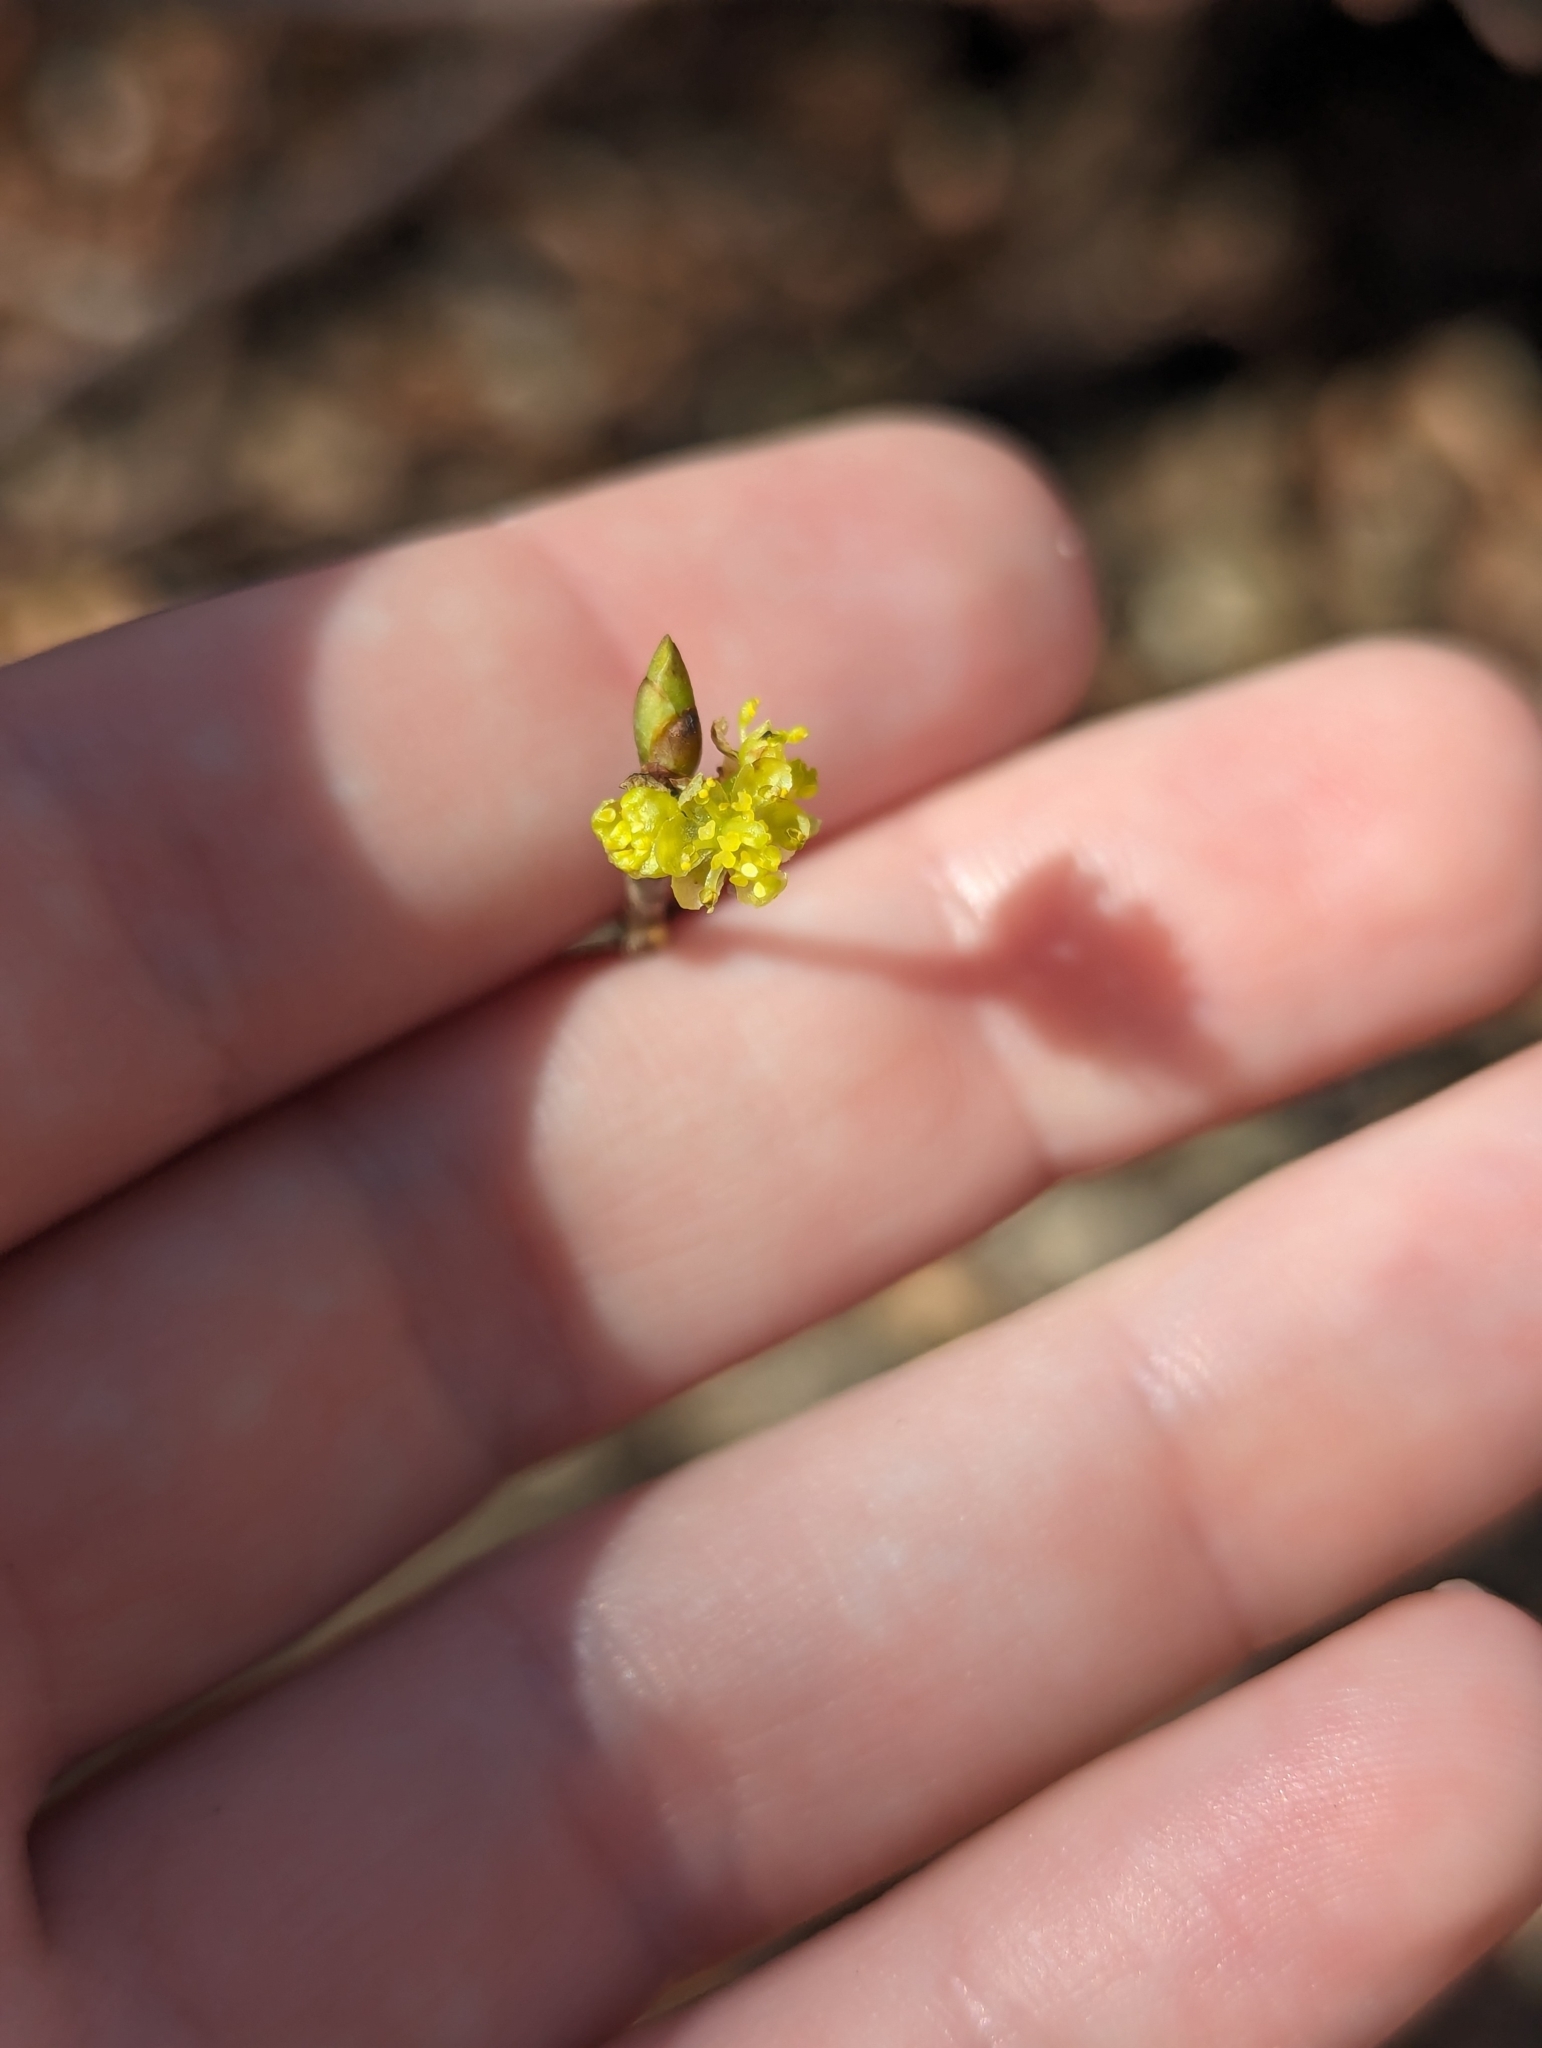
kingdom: Plantae
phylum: Tracheophyta
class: Magnoliopsida
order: Laurales
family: Lauraceae
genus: Lindera
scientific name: Lindera benzoin
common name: Spicebush
